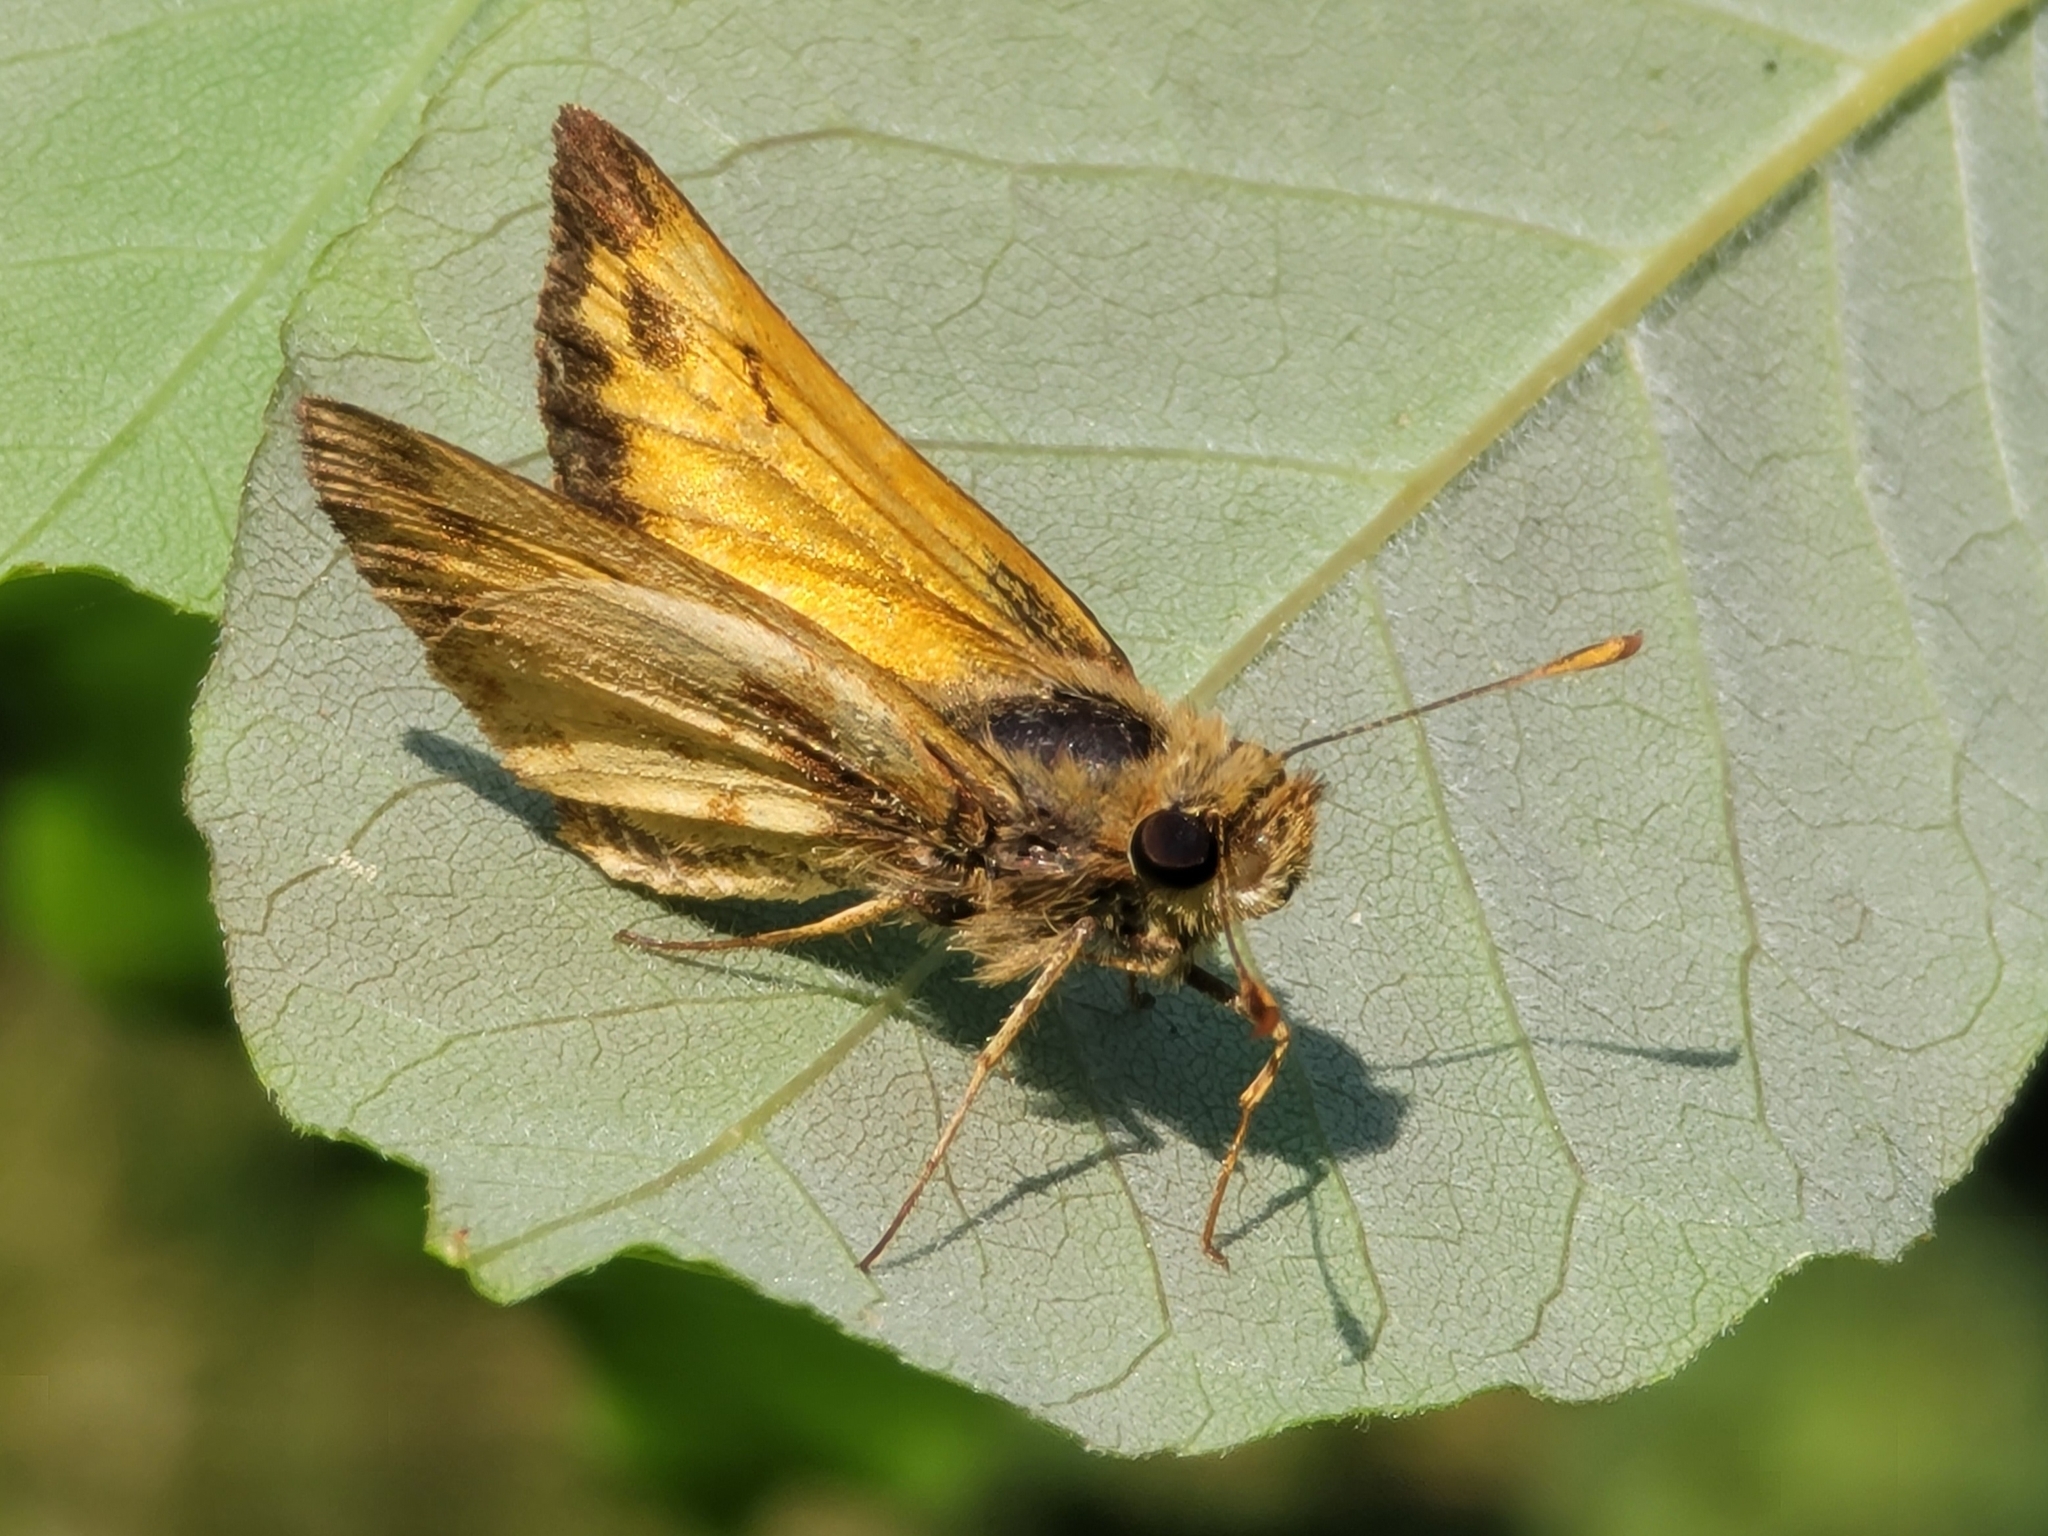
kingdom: Animalia
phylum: Arthropoda
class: Insecta
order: Lepidoptera
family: Hesperiidae
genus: Lon
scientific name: Lon zabulon
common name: Zabulon skipper
